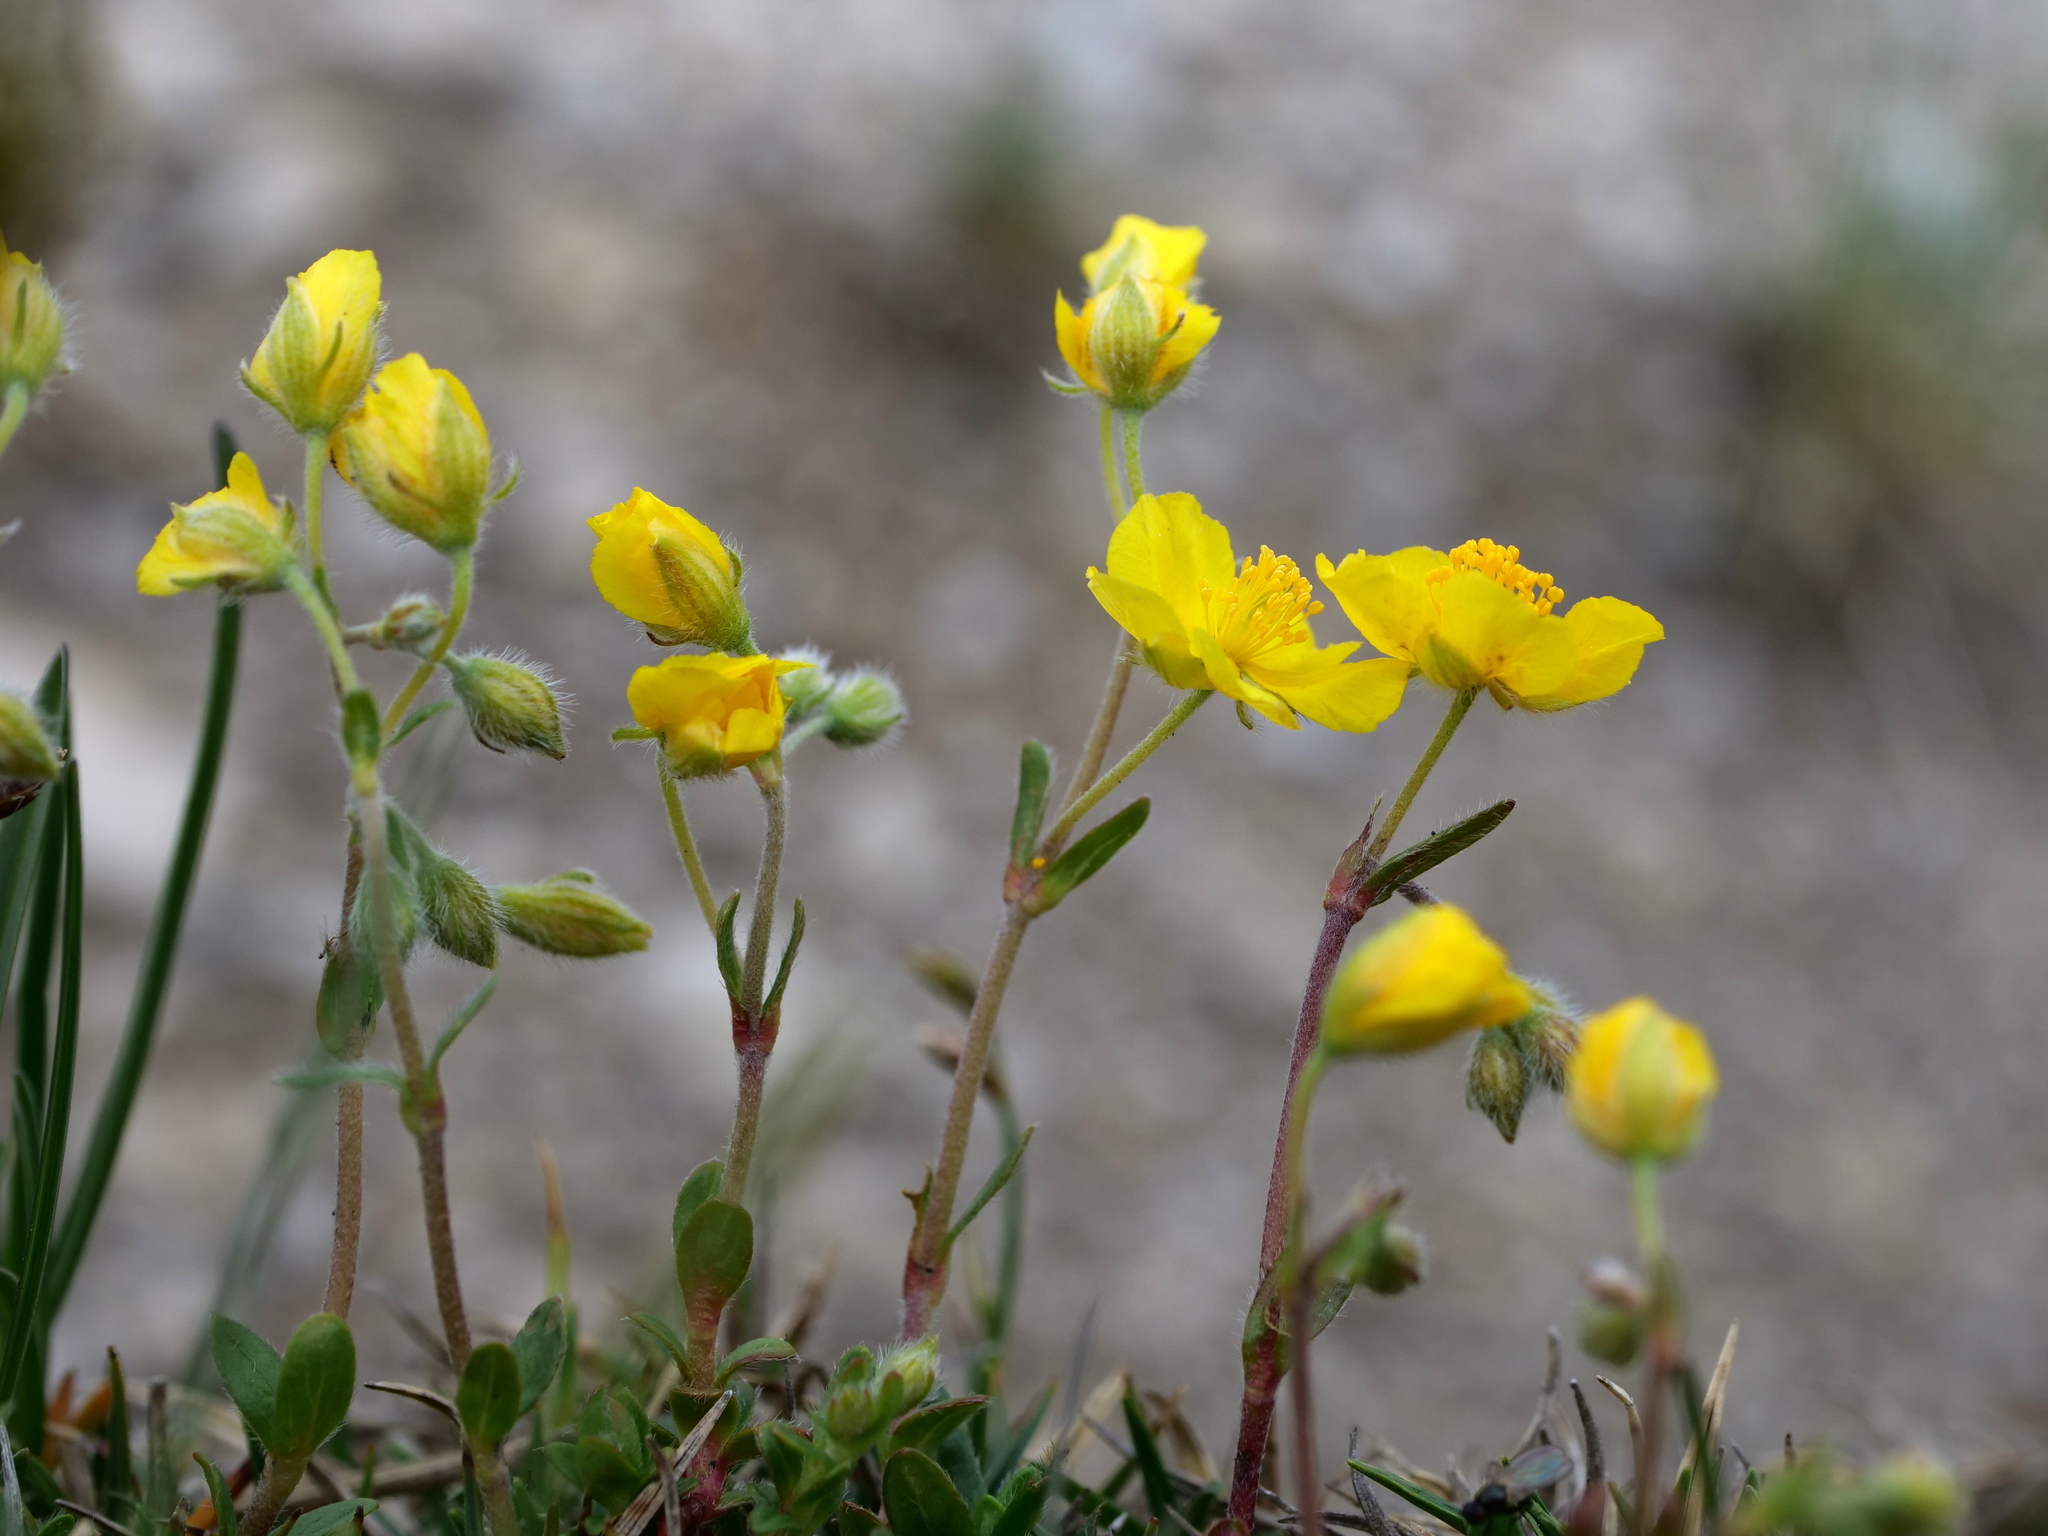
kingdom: Plantae
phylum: Tracheophyta
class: Magnoliopsida
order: Malvales
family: Cistaceae
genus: Helianthemum
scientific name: Helianthemum alpestre
